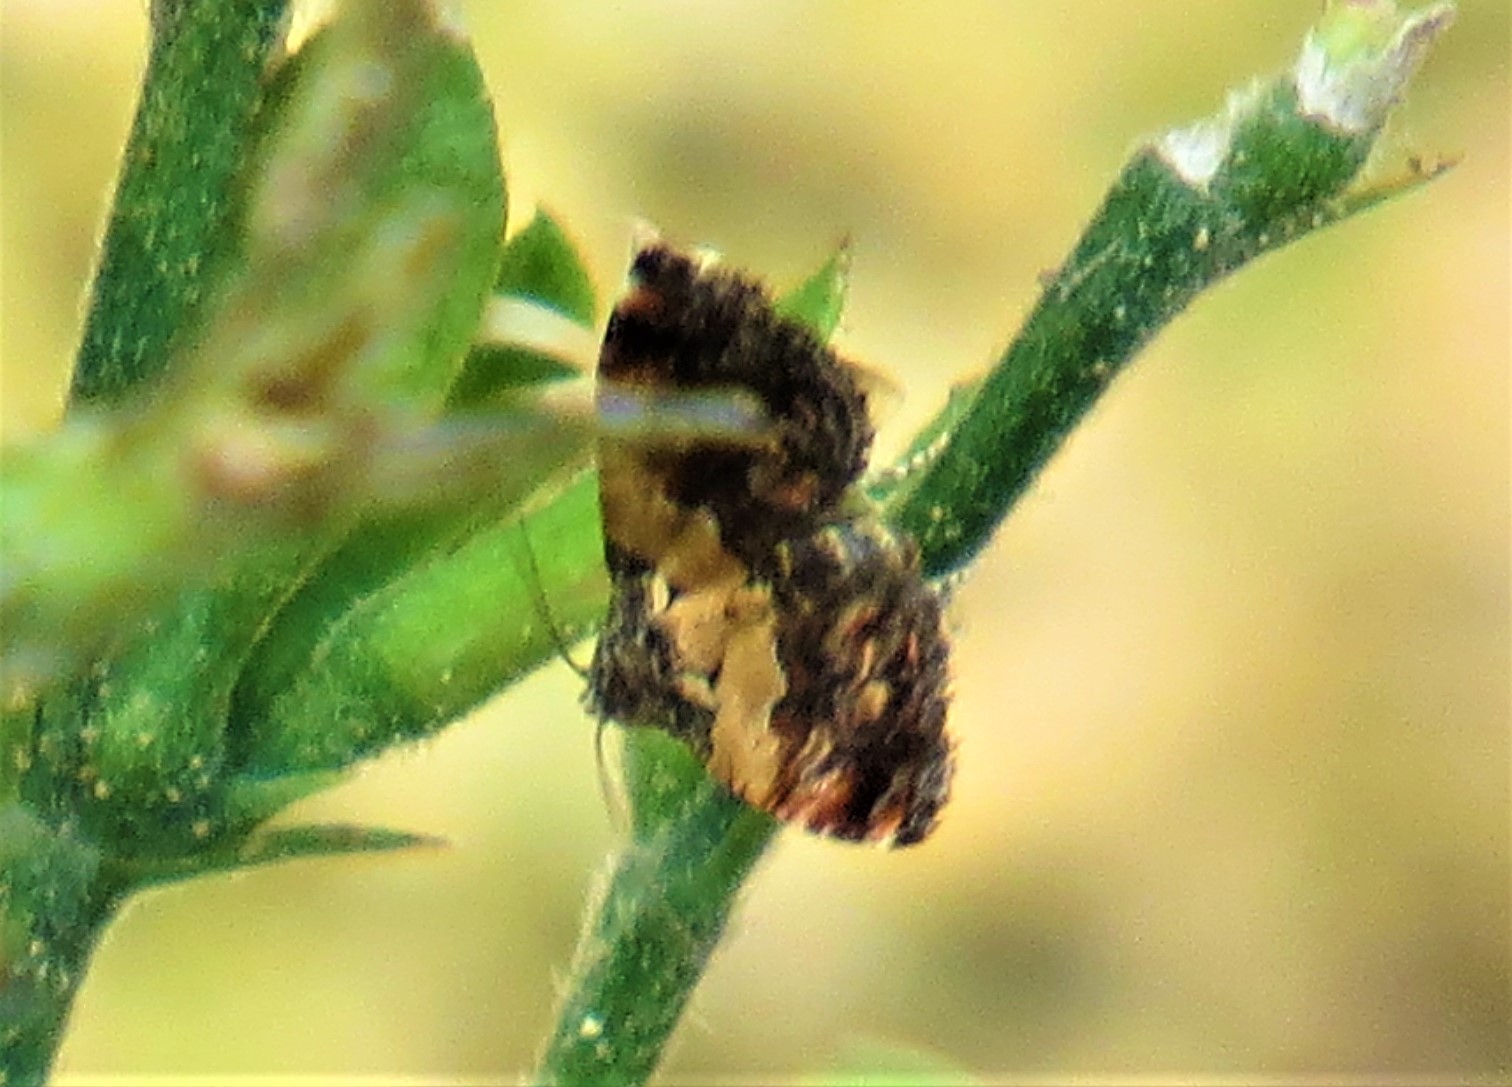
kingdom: Animalia
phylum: Arthropoda
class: Insecta
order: Lepidoptera
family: Noctuidae
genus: Tripudia
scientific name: Tripudia flavofasciata
